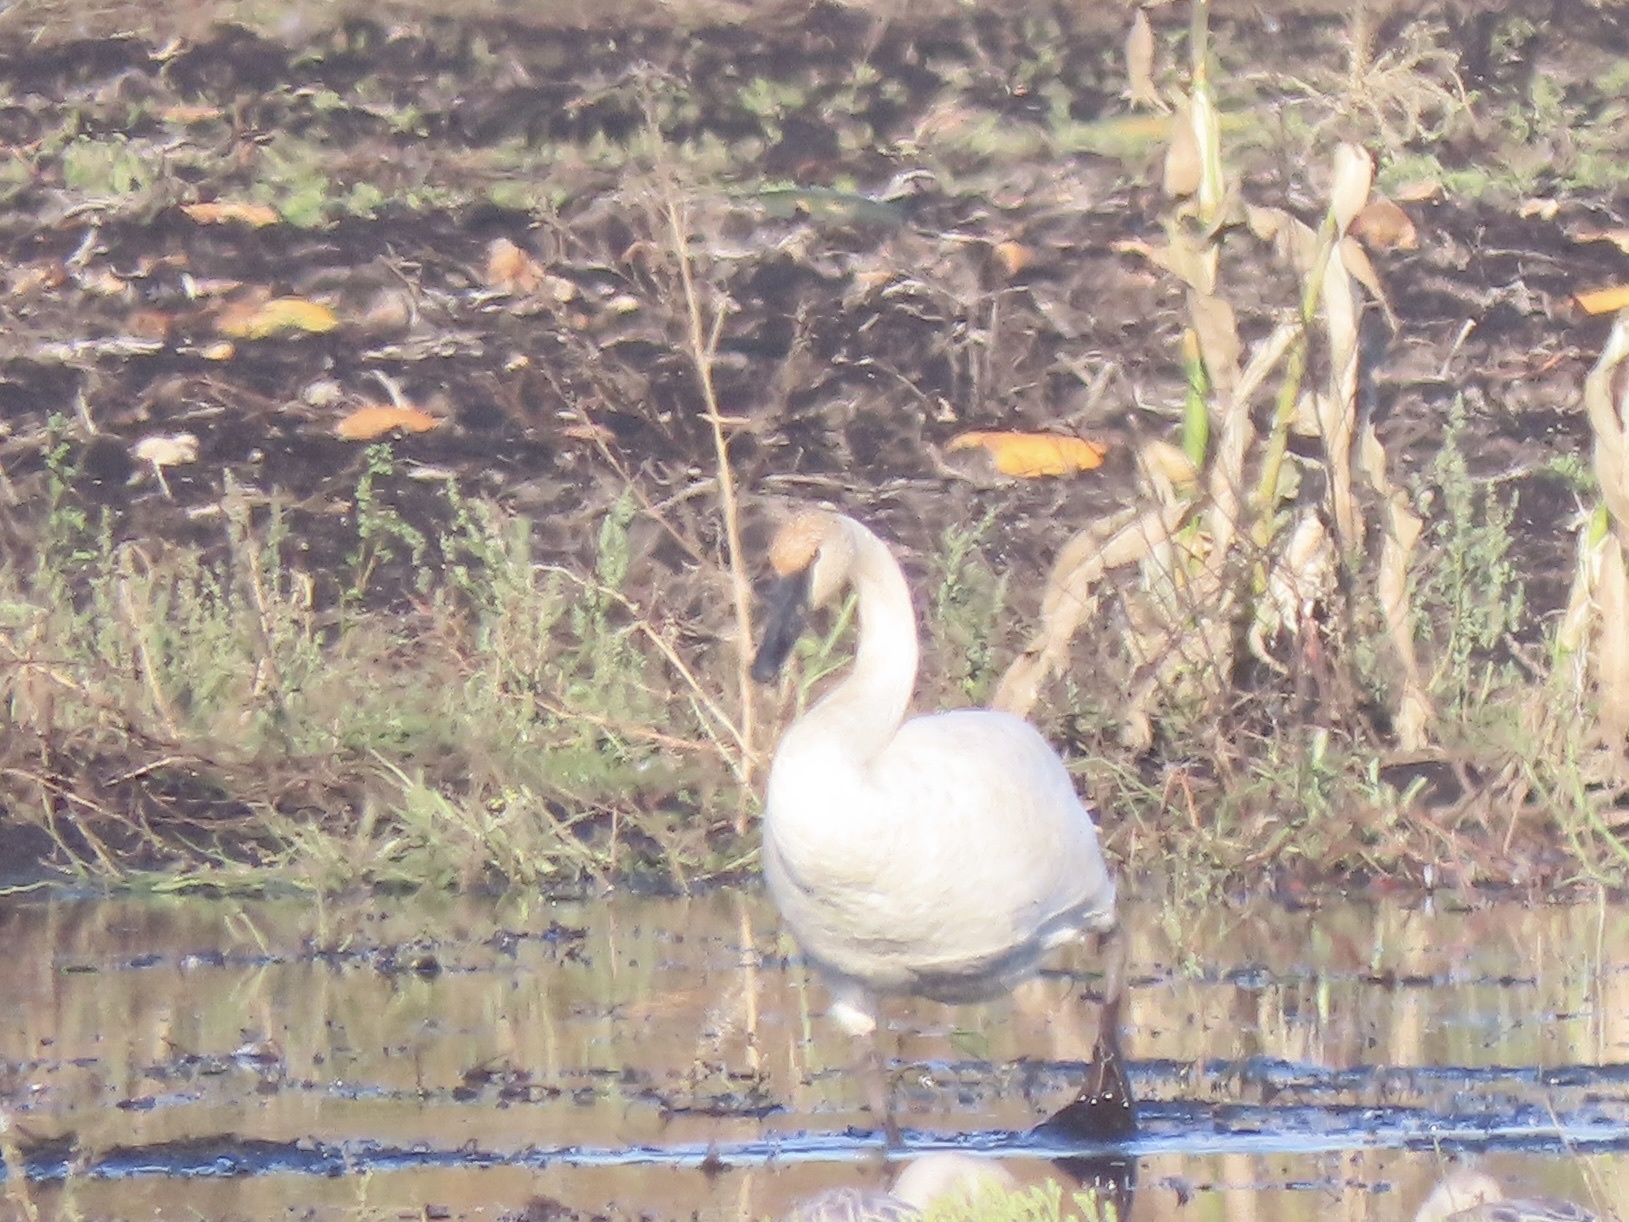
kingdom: Animalia
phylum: Chordata
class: Aves
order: Anseriformes
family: Anatidae
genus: Cygnus
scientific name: Cygnus buccinator
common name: Trumpeter swan
